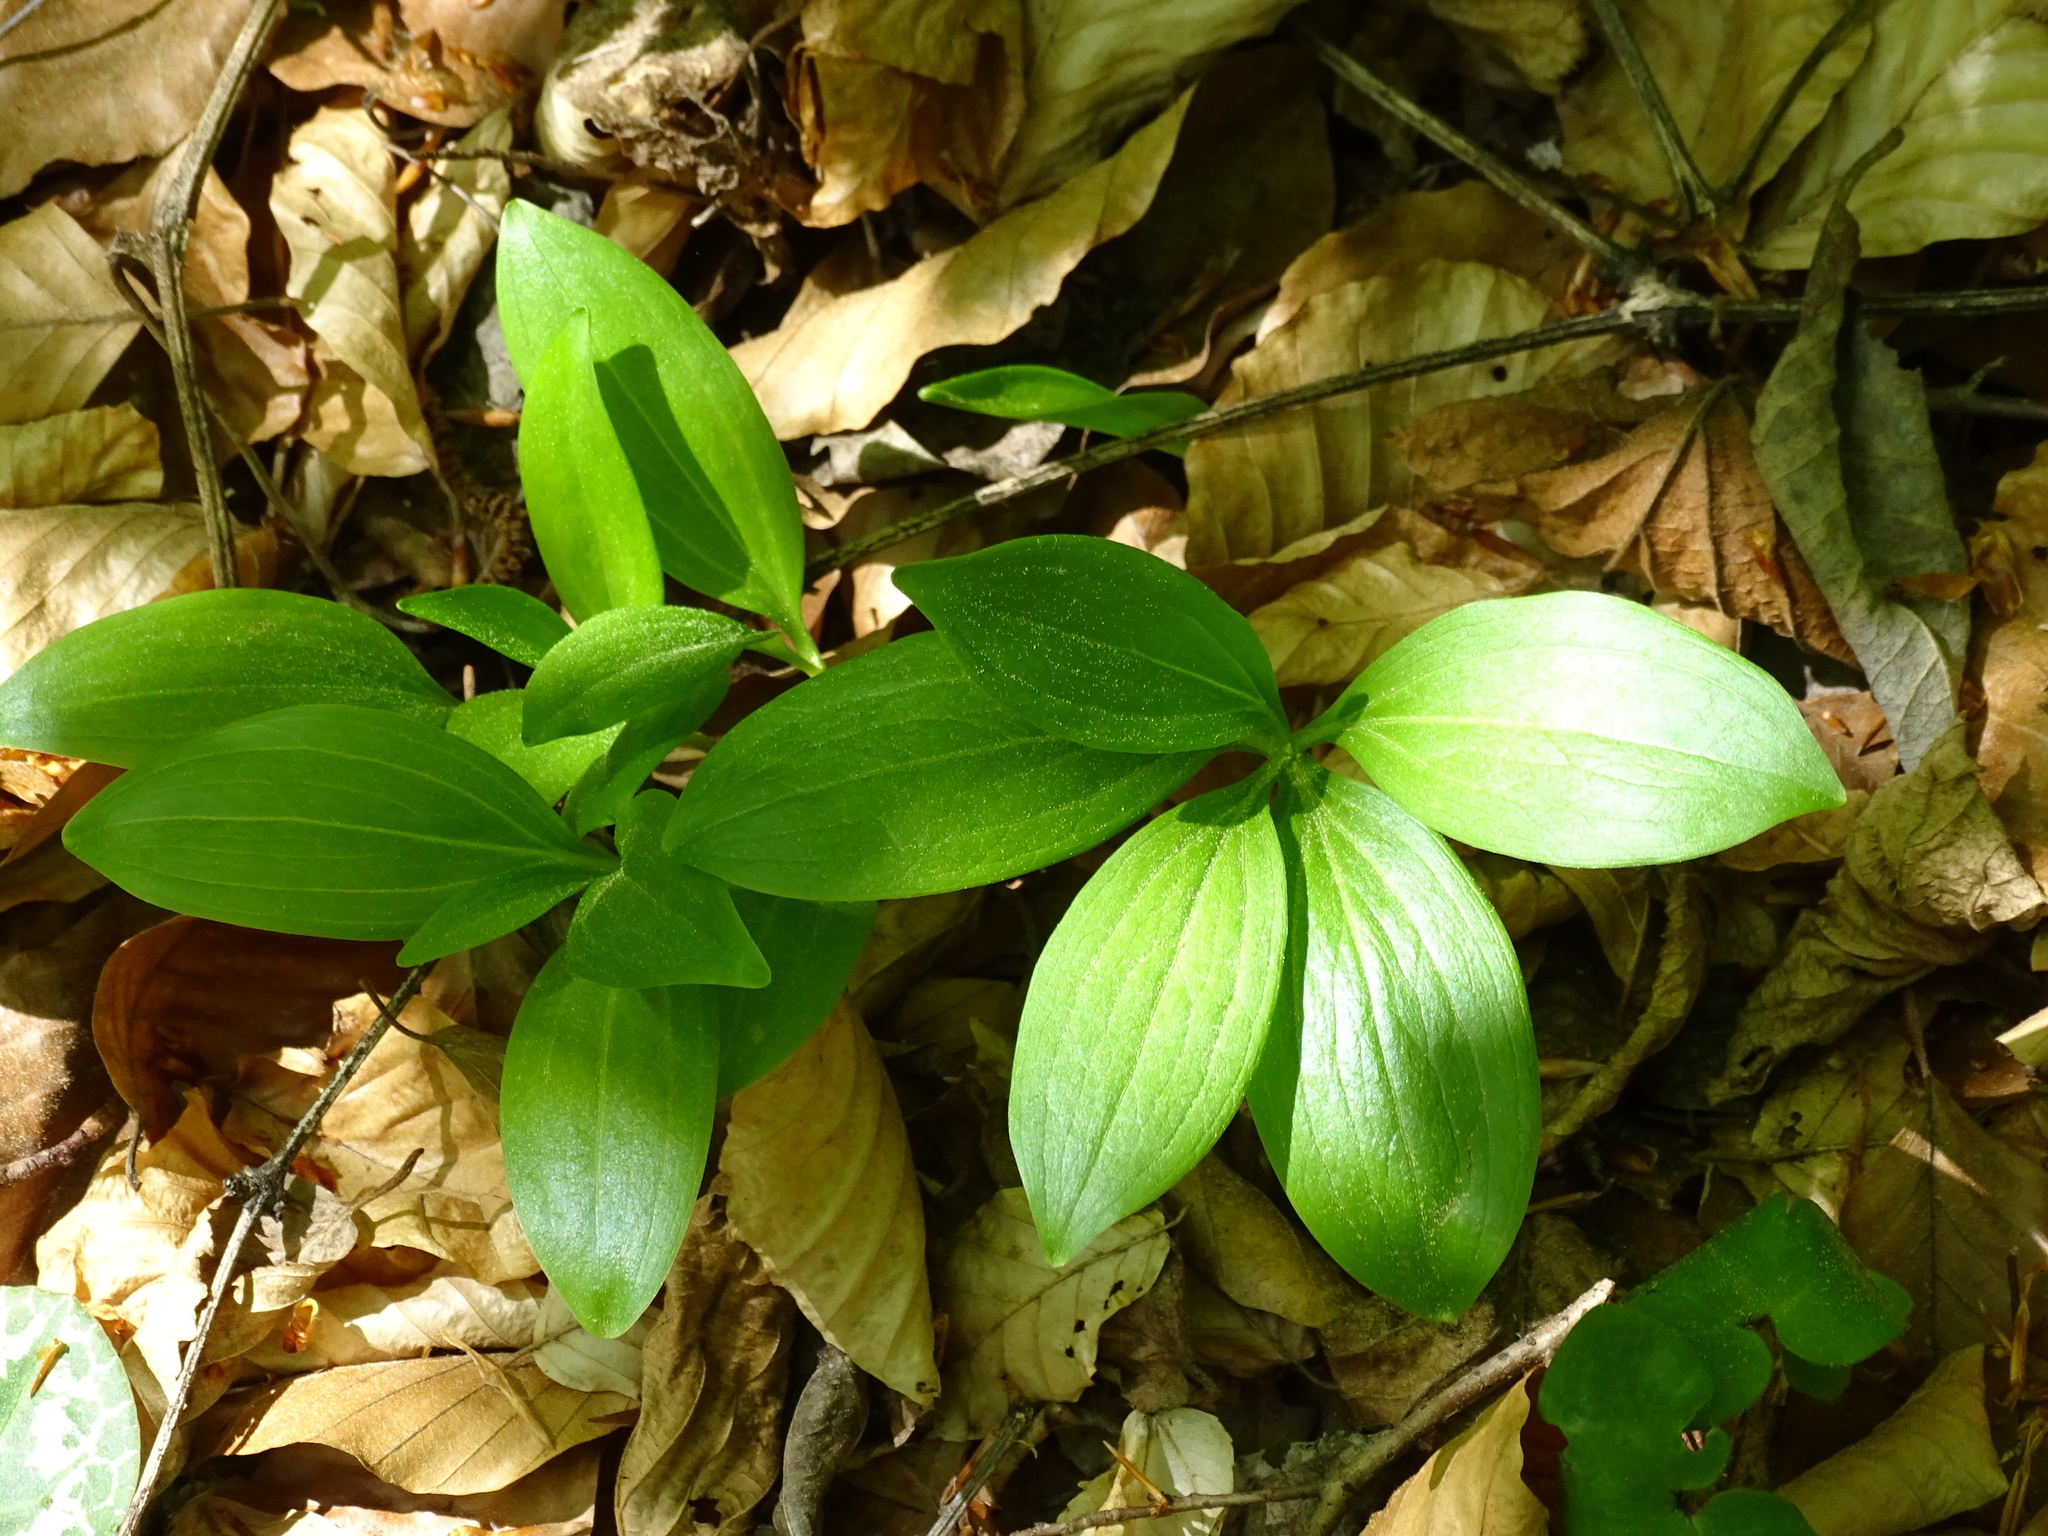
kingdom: Plantae
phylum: Tracheophyta
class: Liliopsida
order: Liliales
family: Liliaceae
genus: Lilium
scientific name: Lilium martagon
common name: Martagon lily
